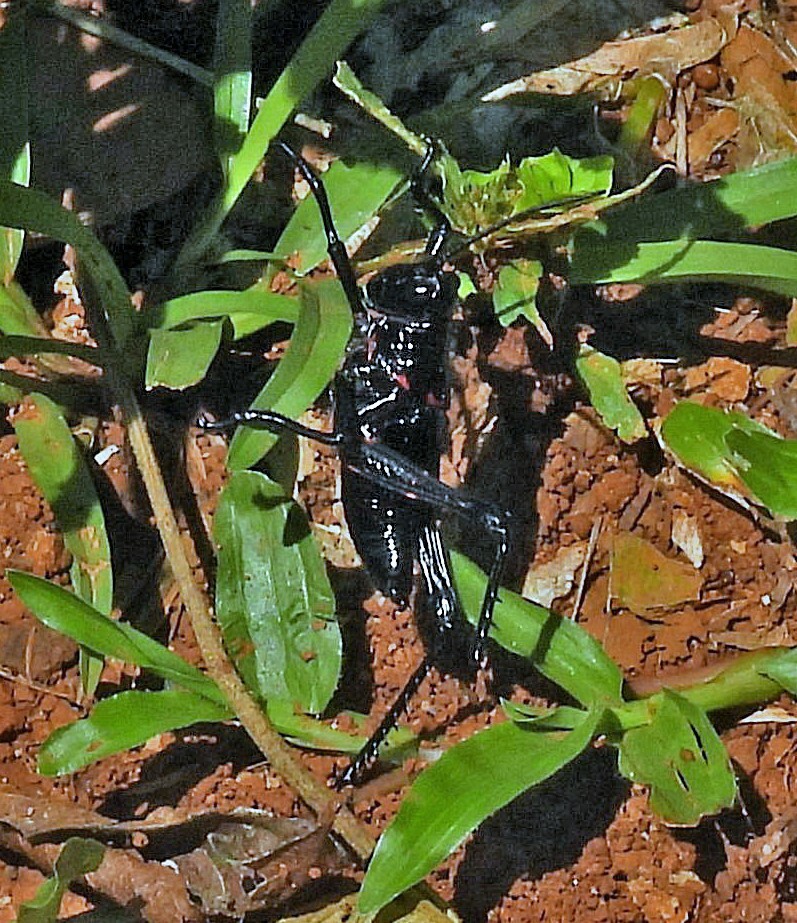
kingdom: Animalia
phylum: Arthropoda
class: Insecta
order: Orthoptera
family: Romaleidae
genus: Chromacris
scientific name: Chromacris speciosa
